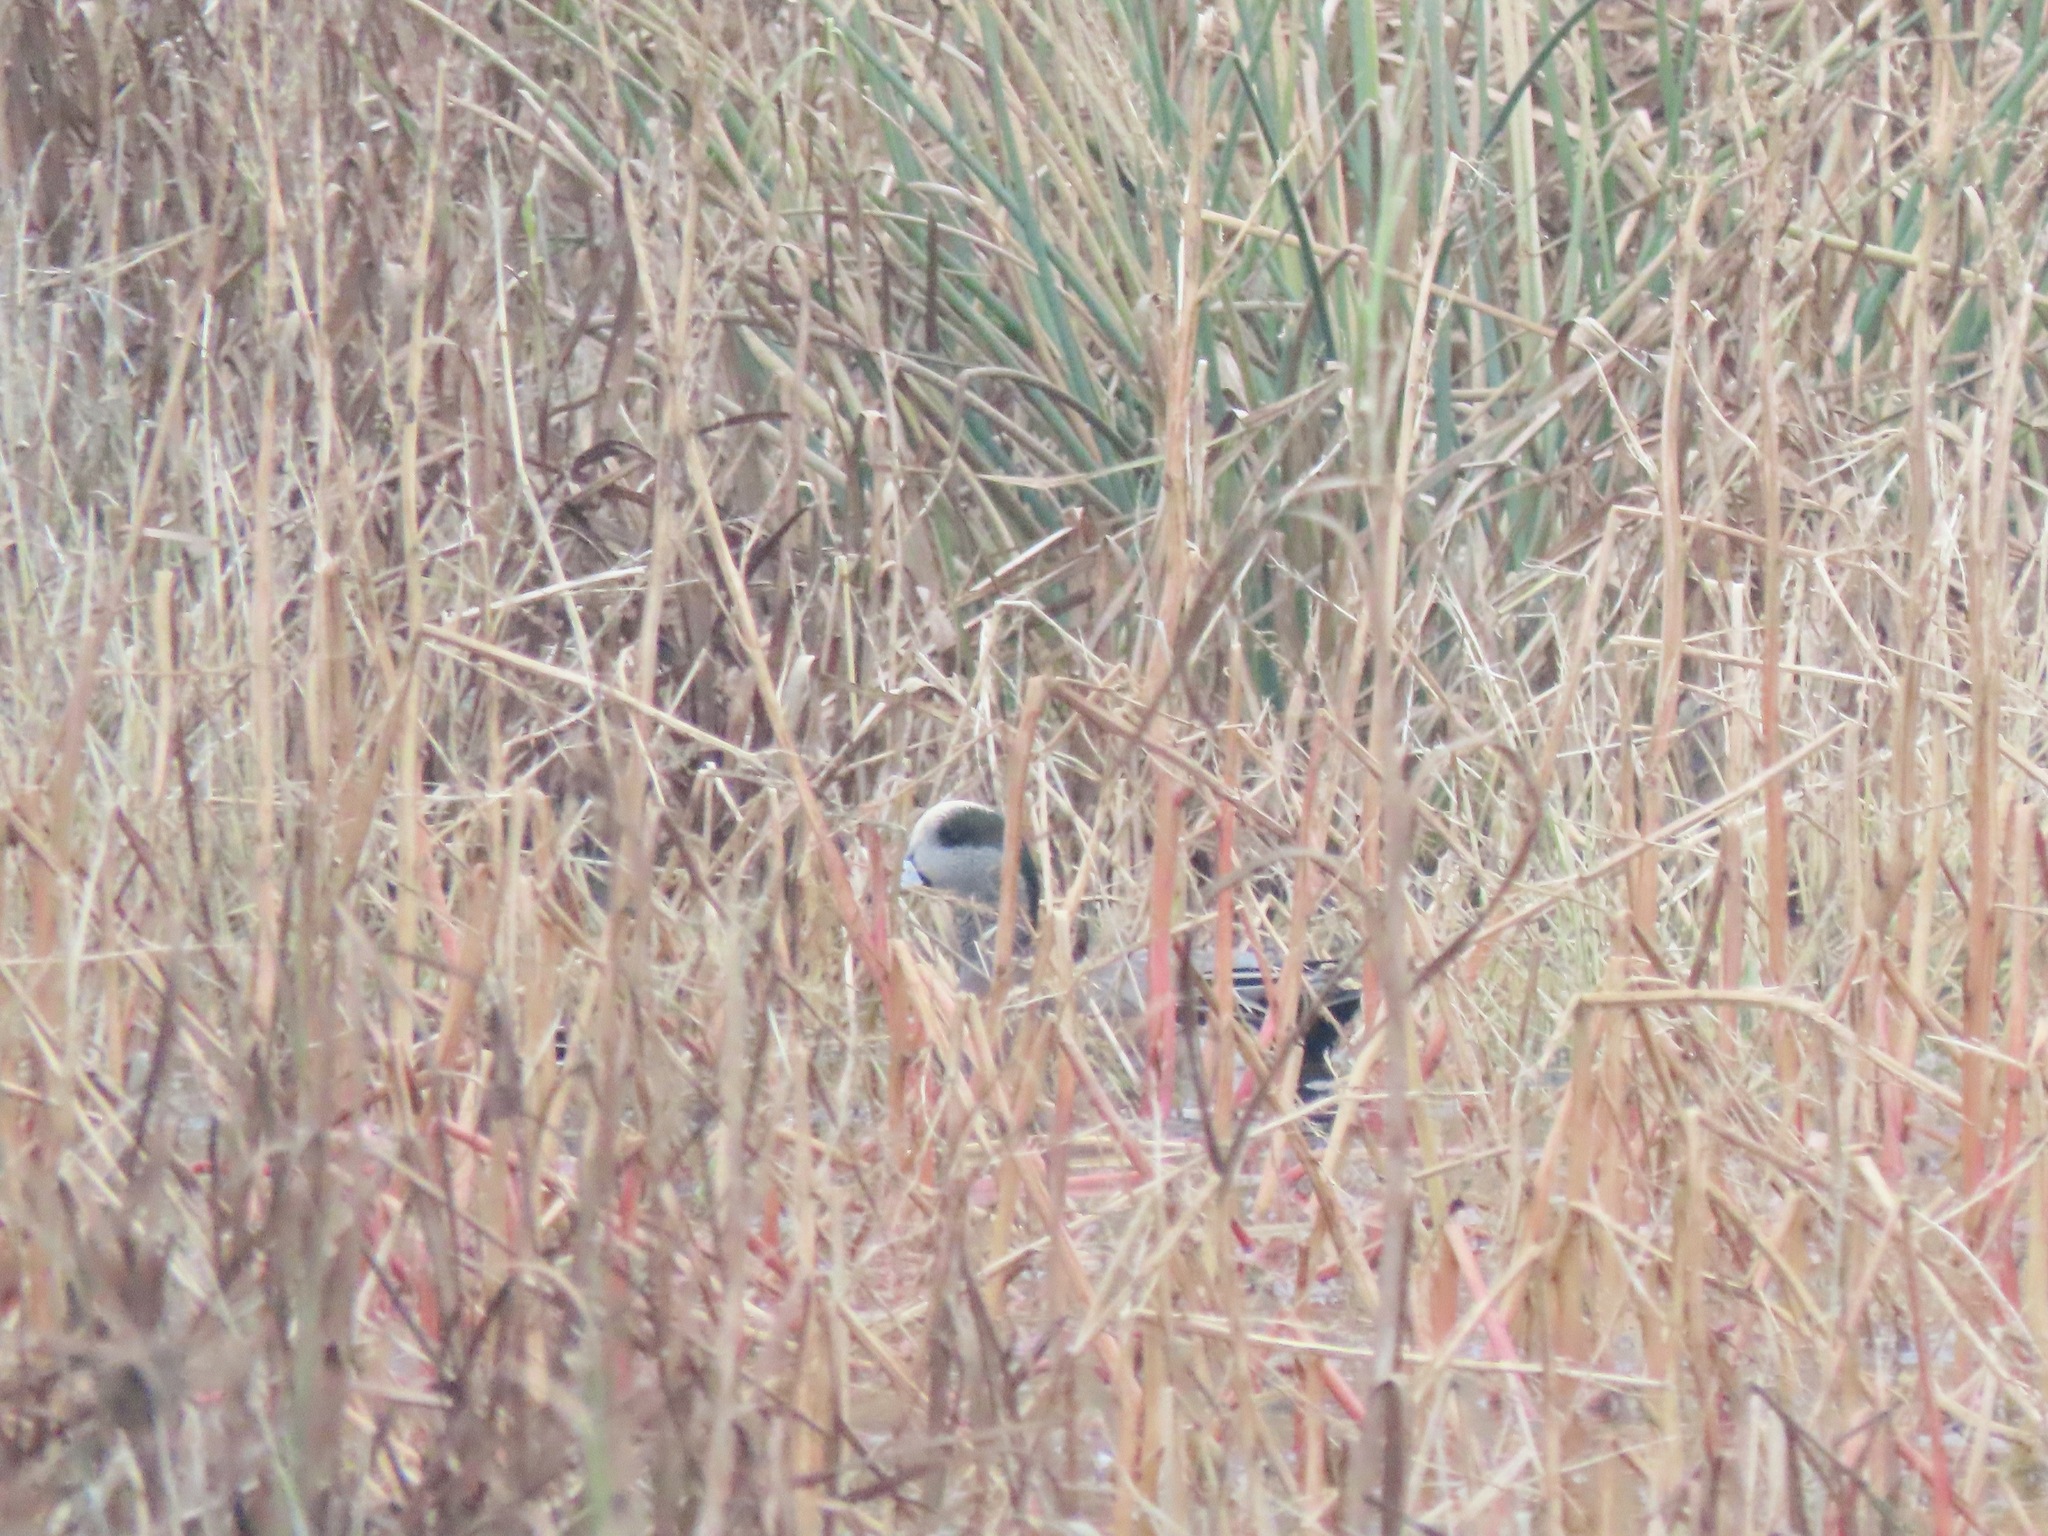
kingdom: Animalia
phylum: Chordata
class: Aves
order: Anseriformes
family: Anatidae
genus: Mareca
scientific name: Mareca americana
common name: American wigeon
